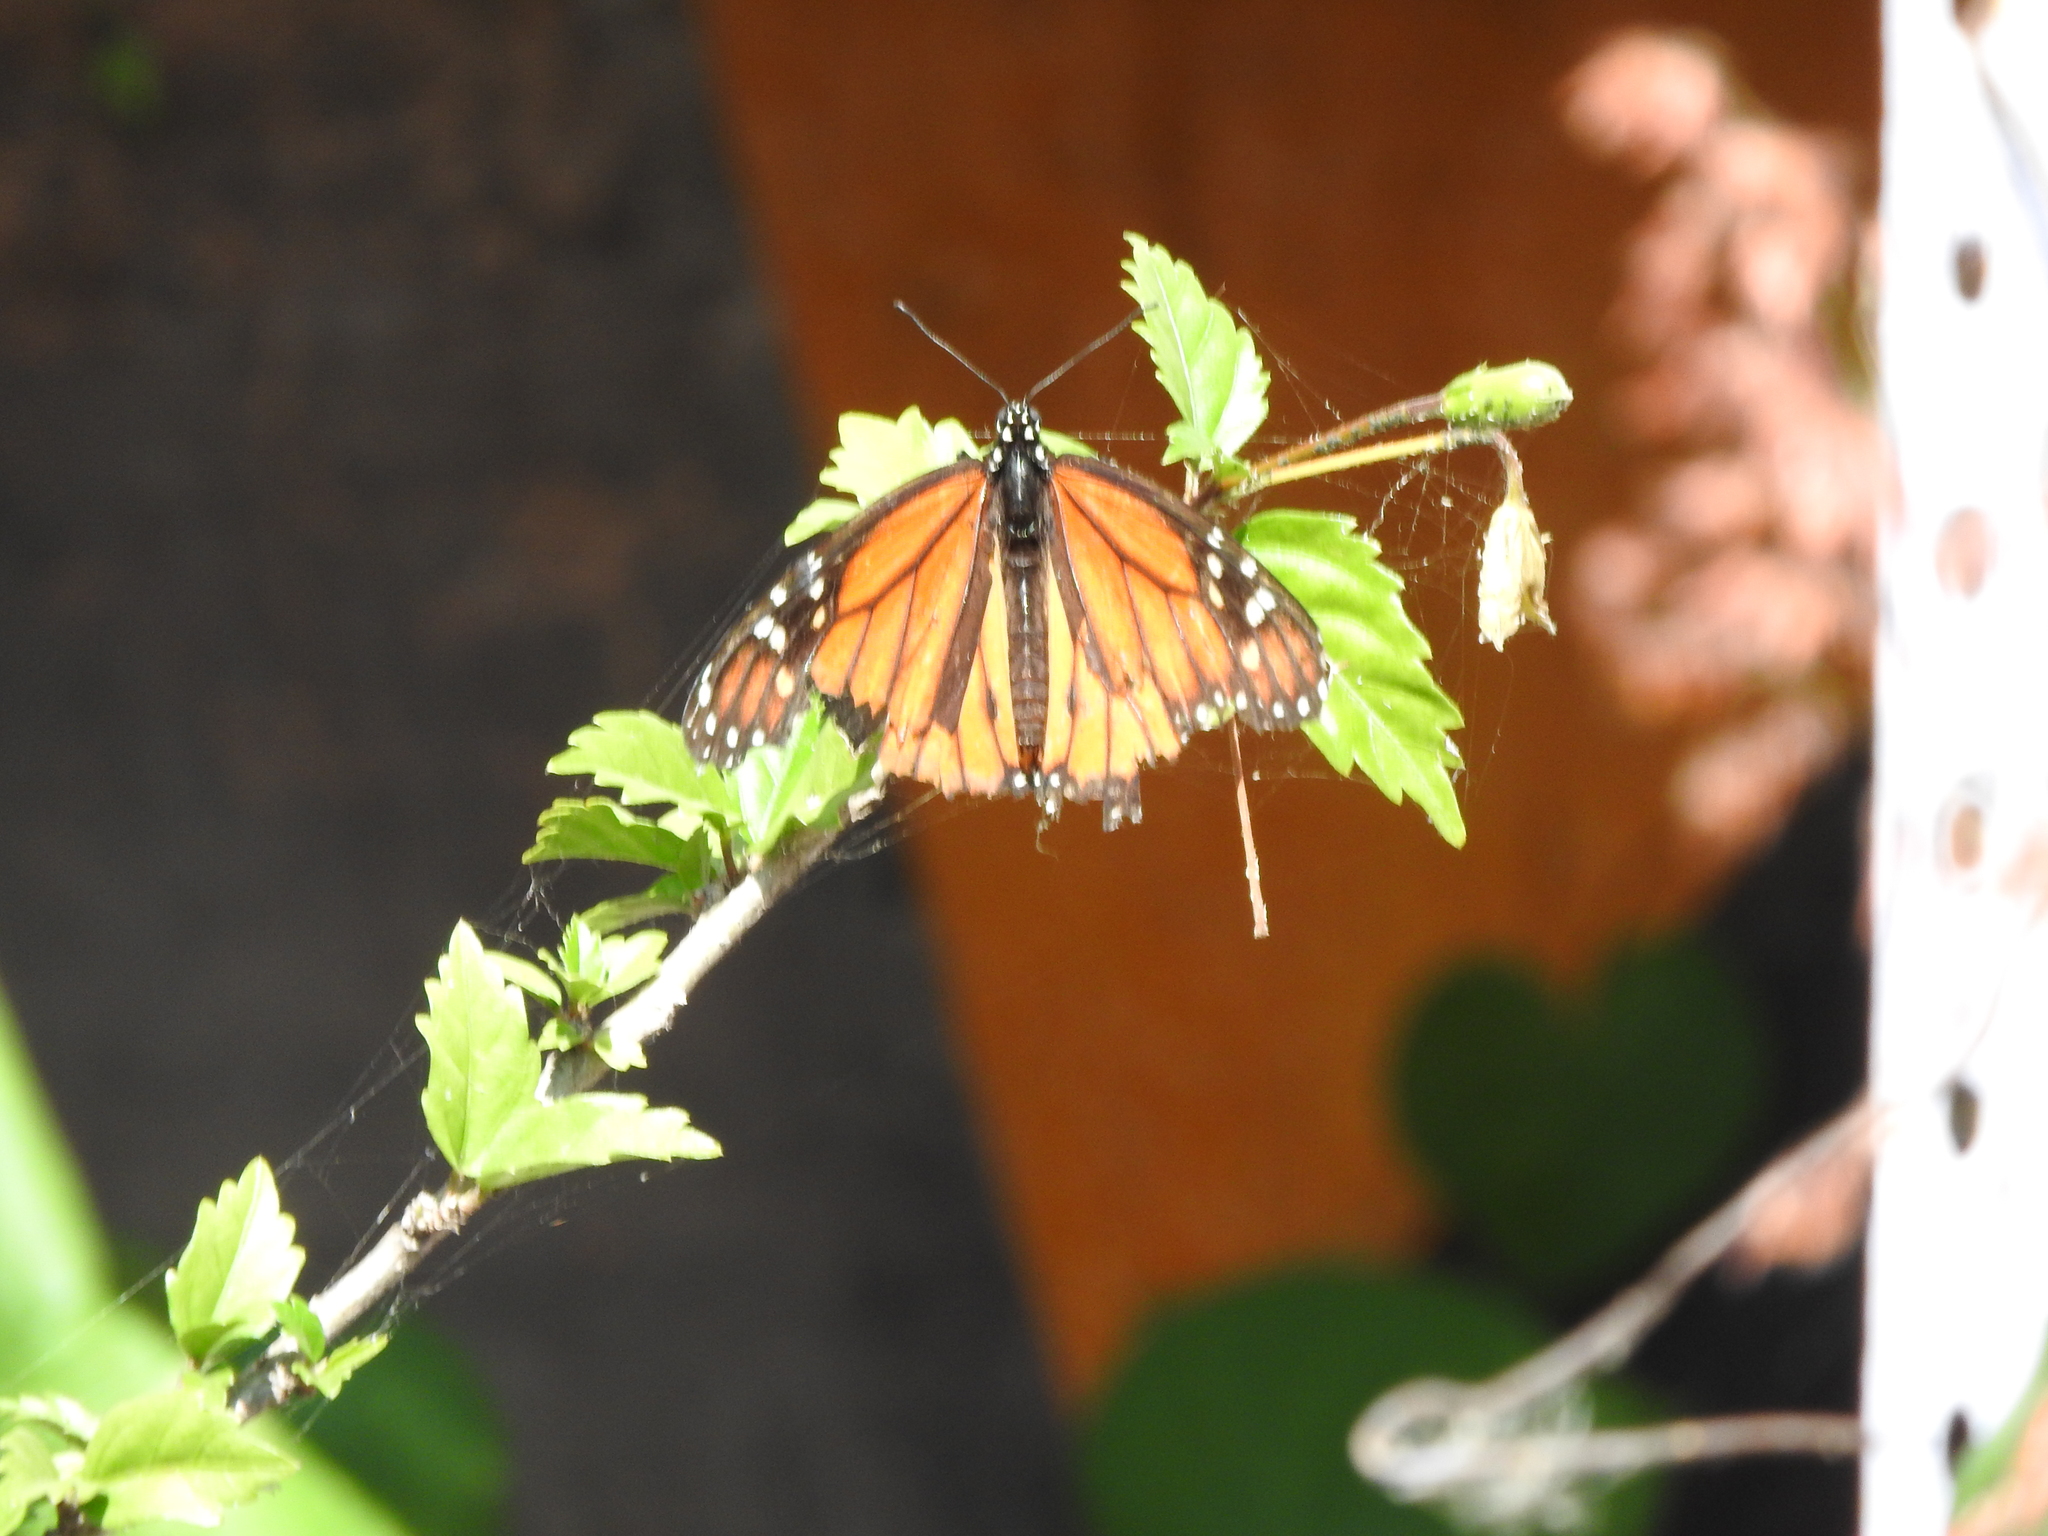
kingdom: Animalia
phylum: Arthropoda
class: Insecta
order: Lepidoptera
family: Nymphalidae
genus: Danaus
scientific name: Danaus plexippus
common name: Monarch
